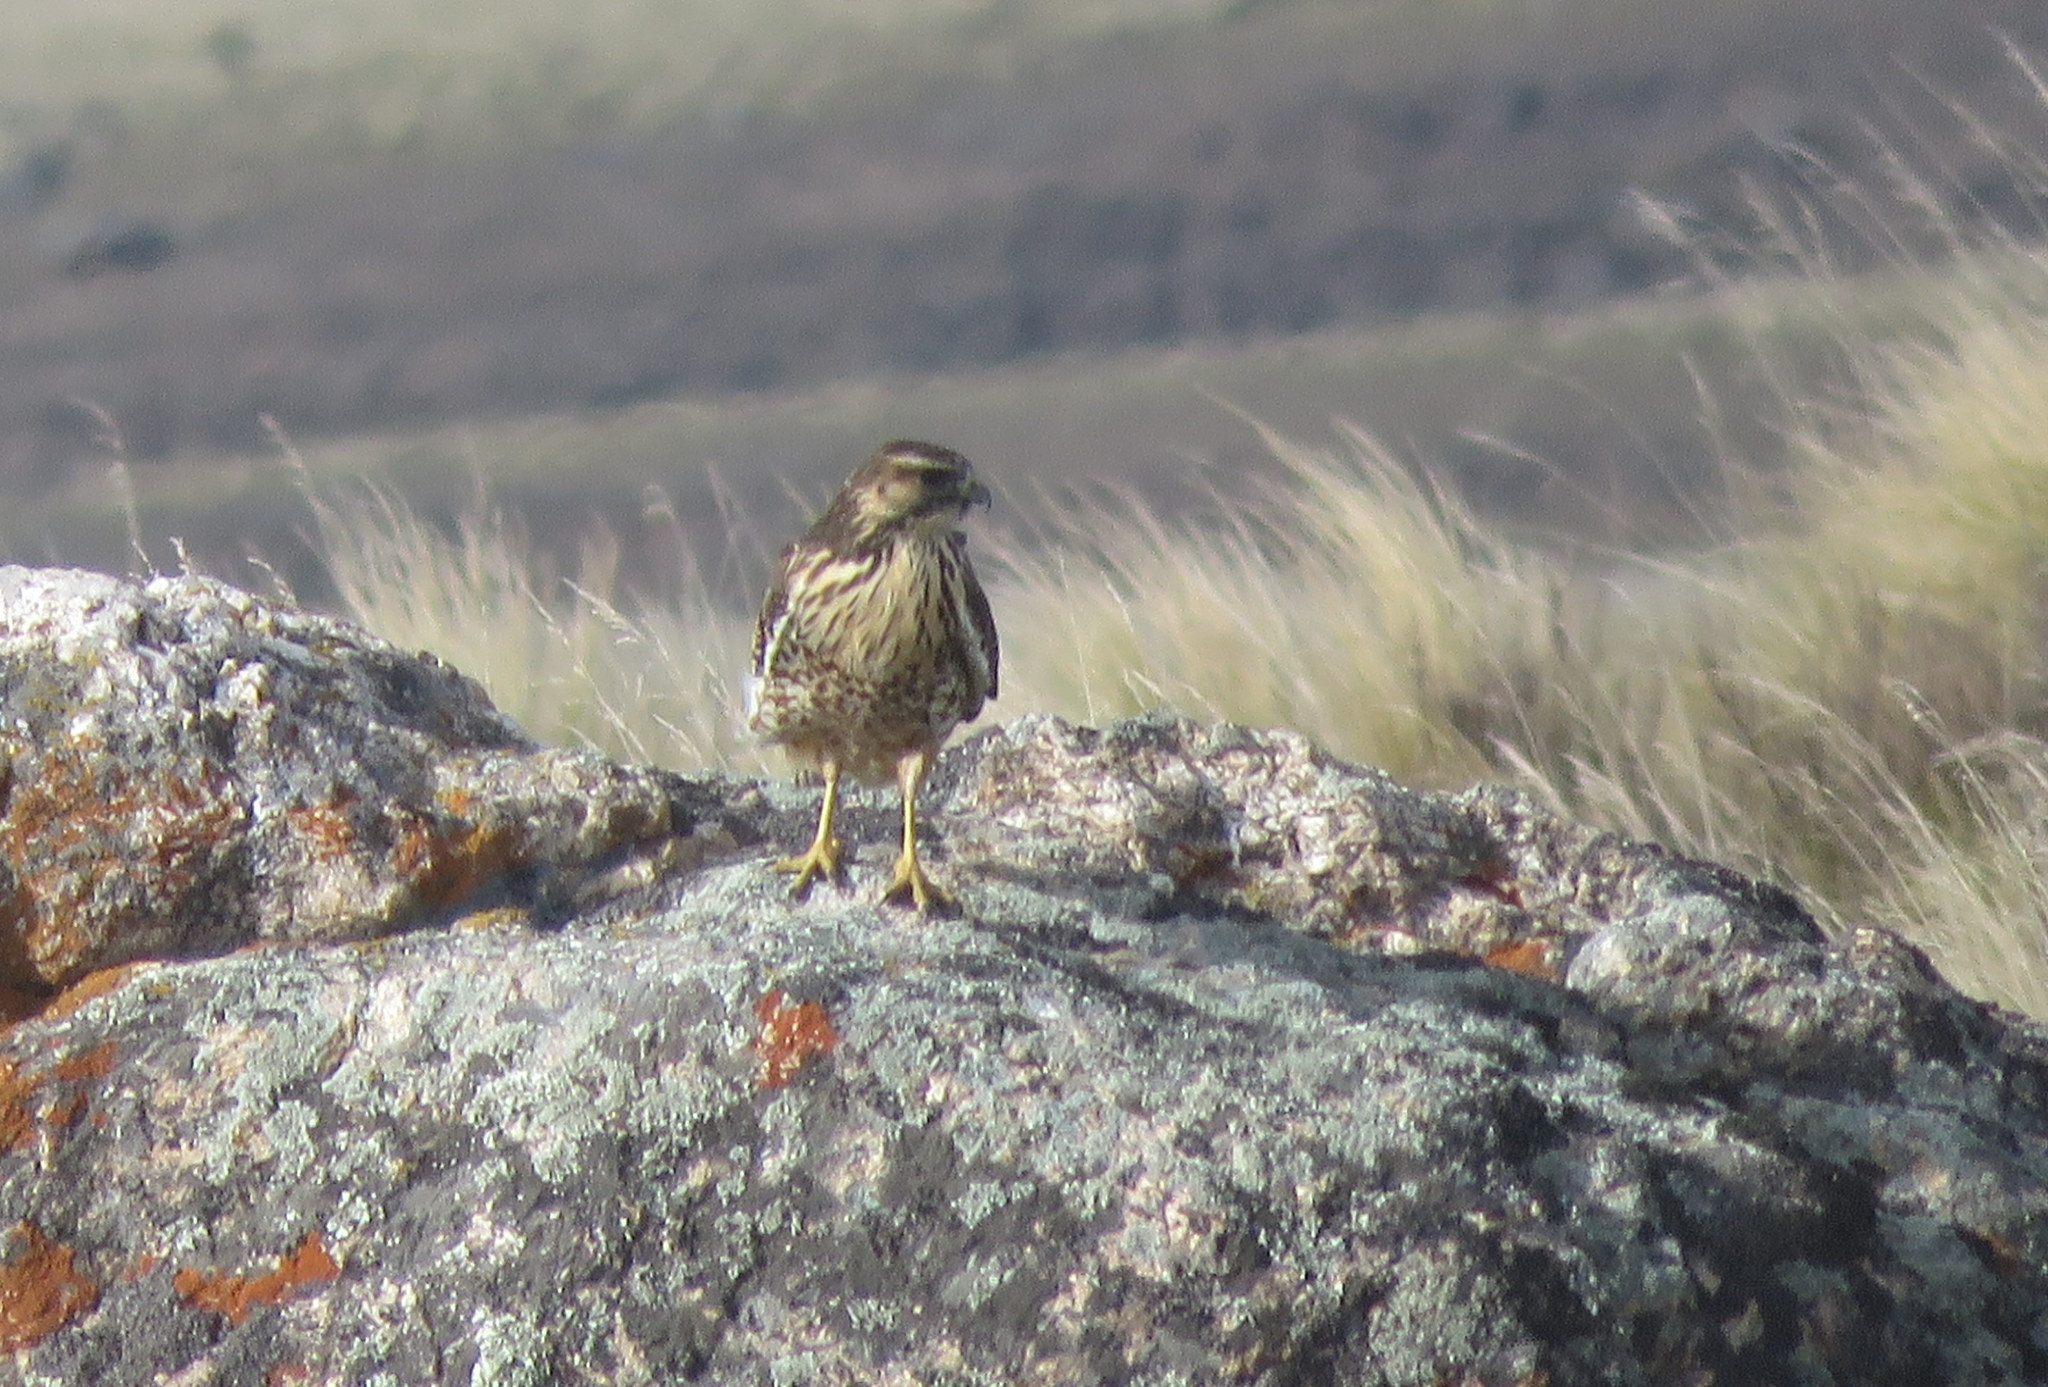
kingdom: Animalia
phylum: Chordata
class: Aves
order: Accipitriformes
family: Accipitridae
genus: Buteo
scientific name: Buteo polyosoma
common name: Variable hawk
